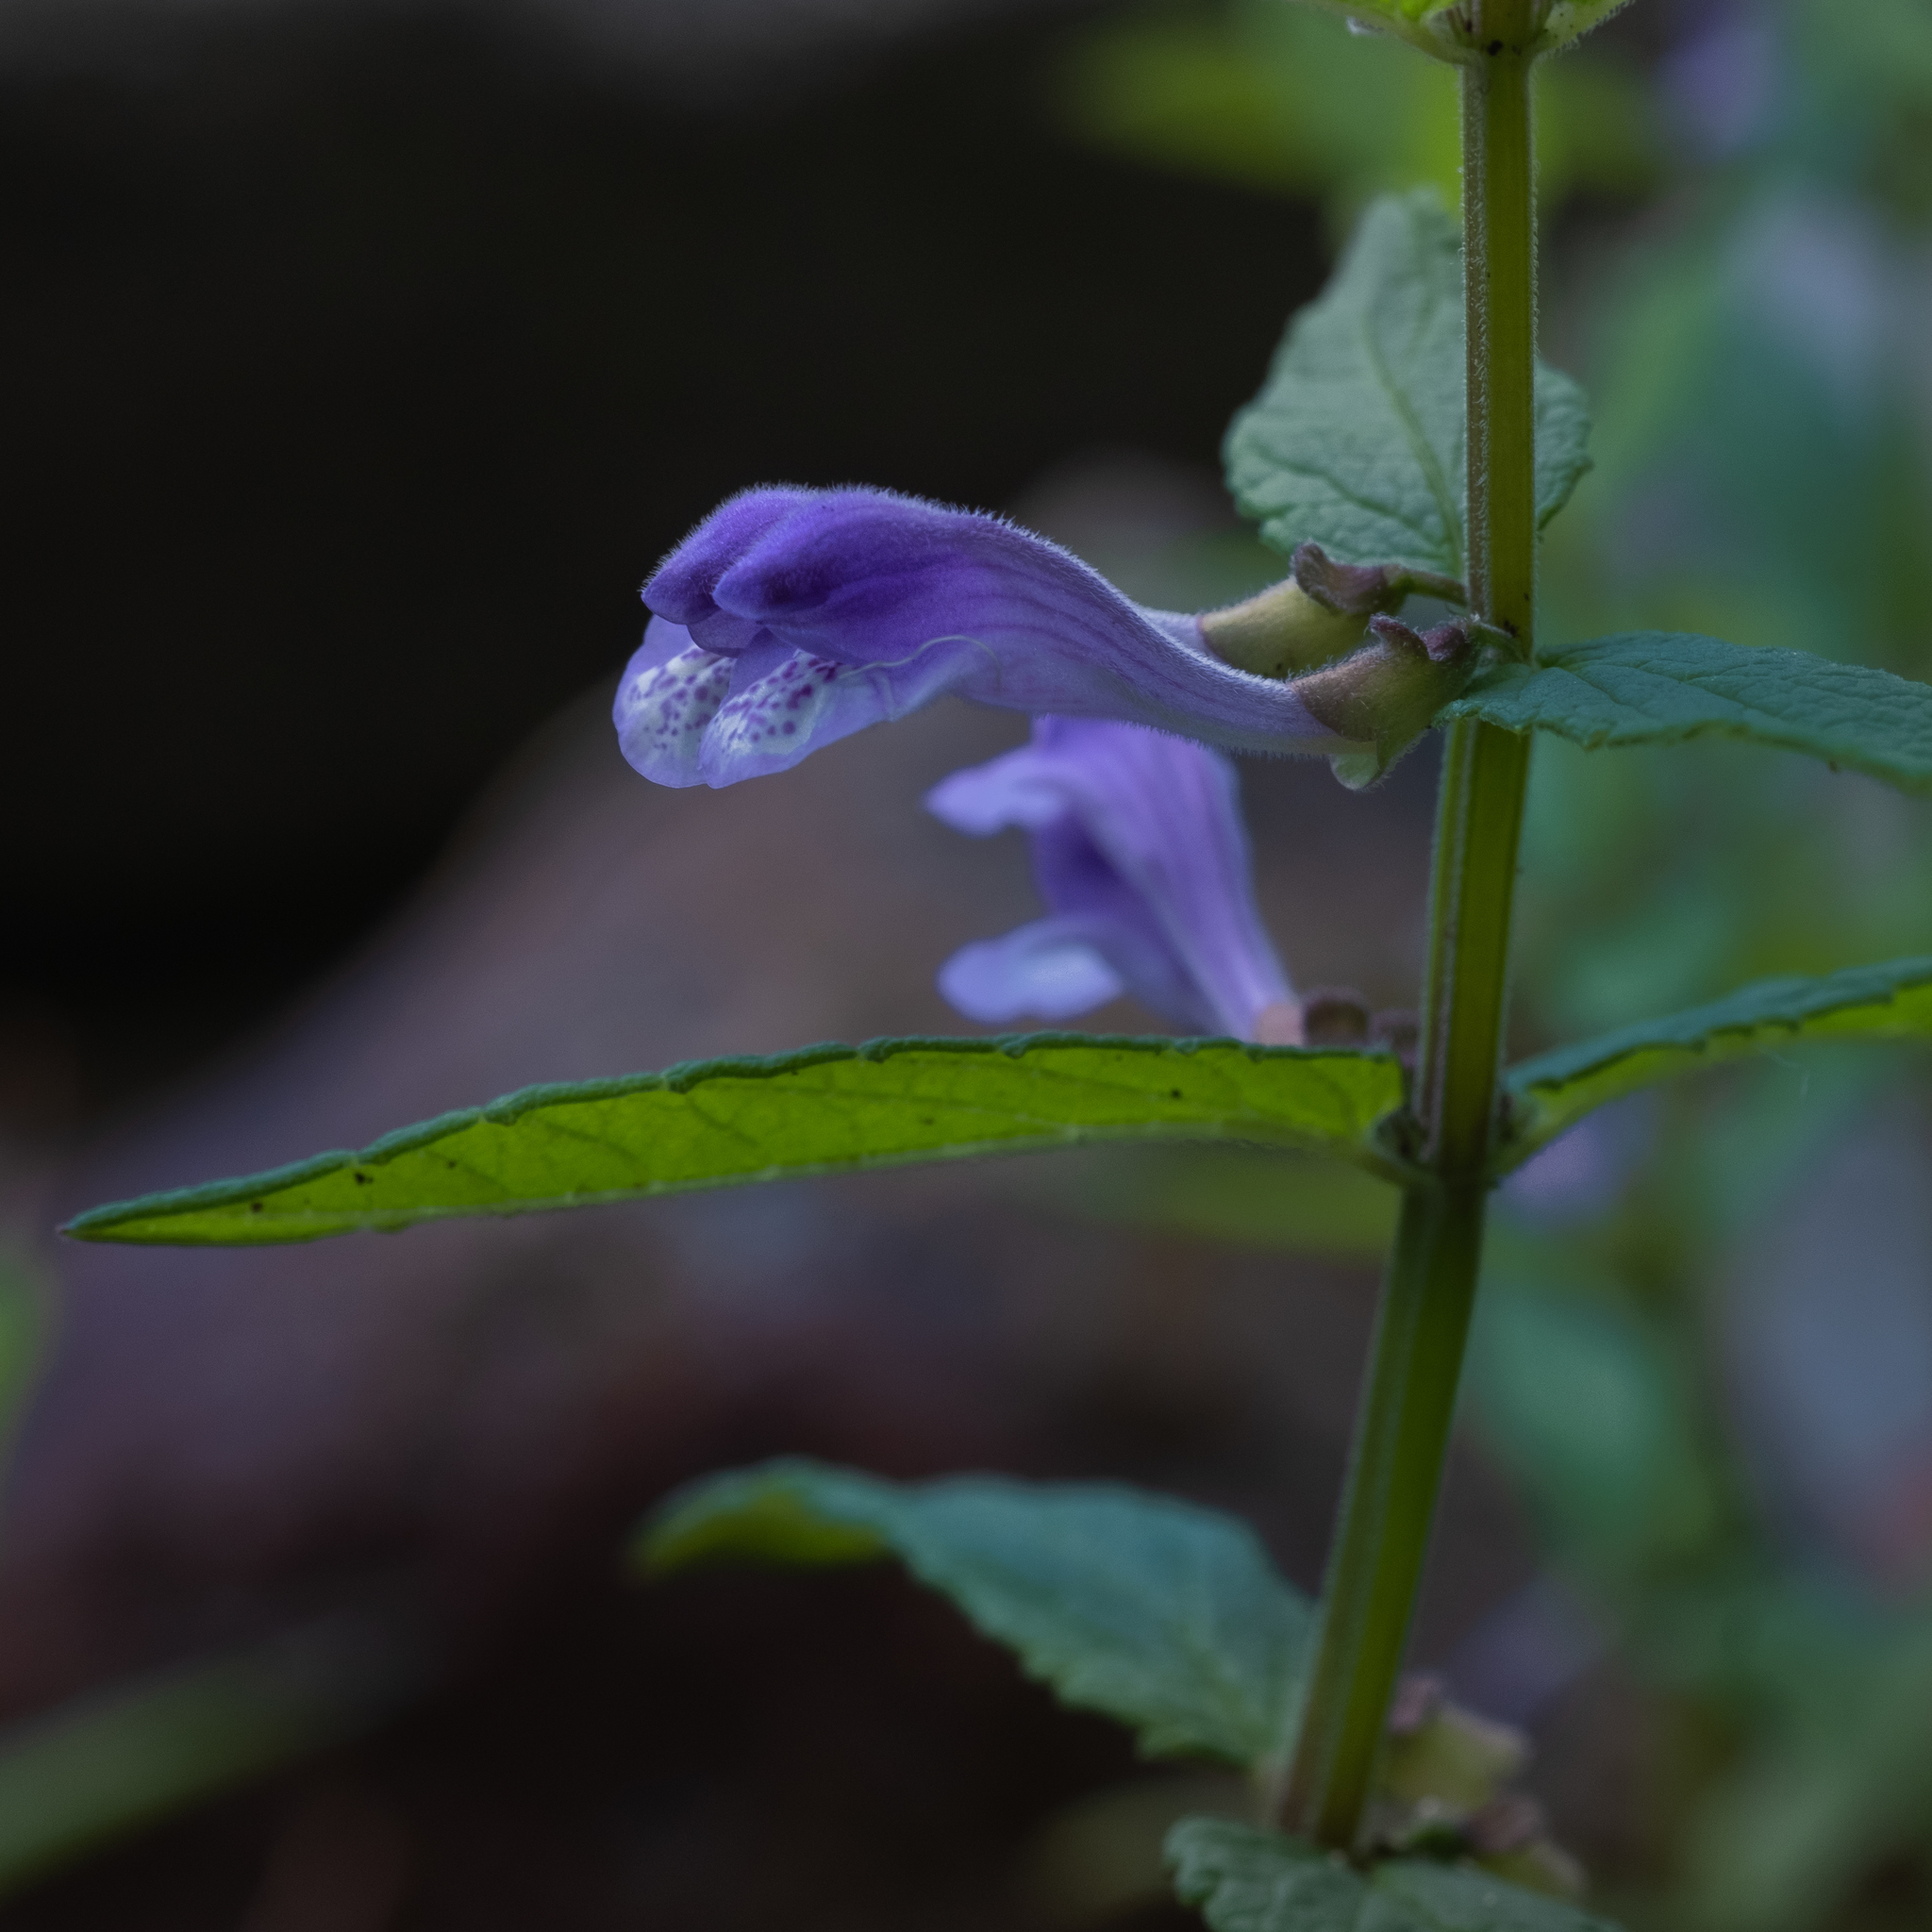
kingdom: Plantae
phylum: Tracheophyta
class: Magnoliopsida
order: Lamiales
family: Lamiaceae
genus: Scutellaria
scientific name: Scutellaria galericulata
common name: Skullcap
